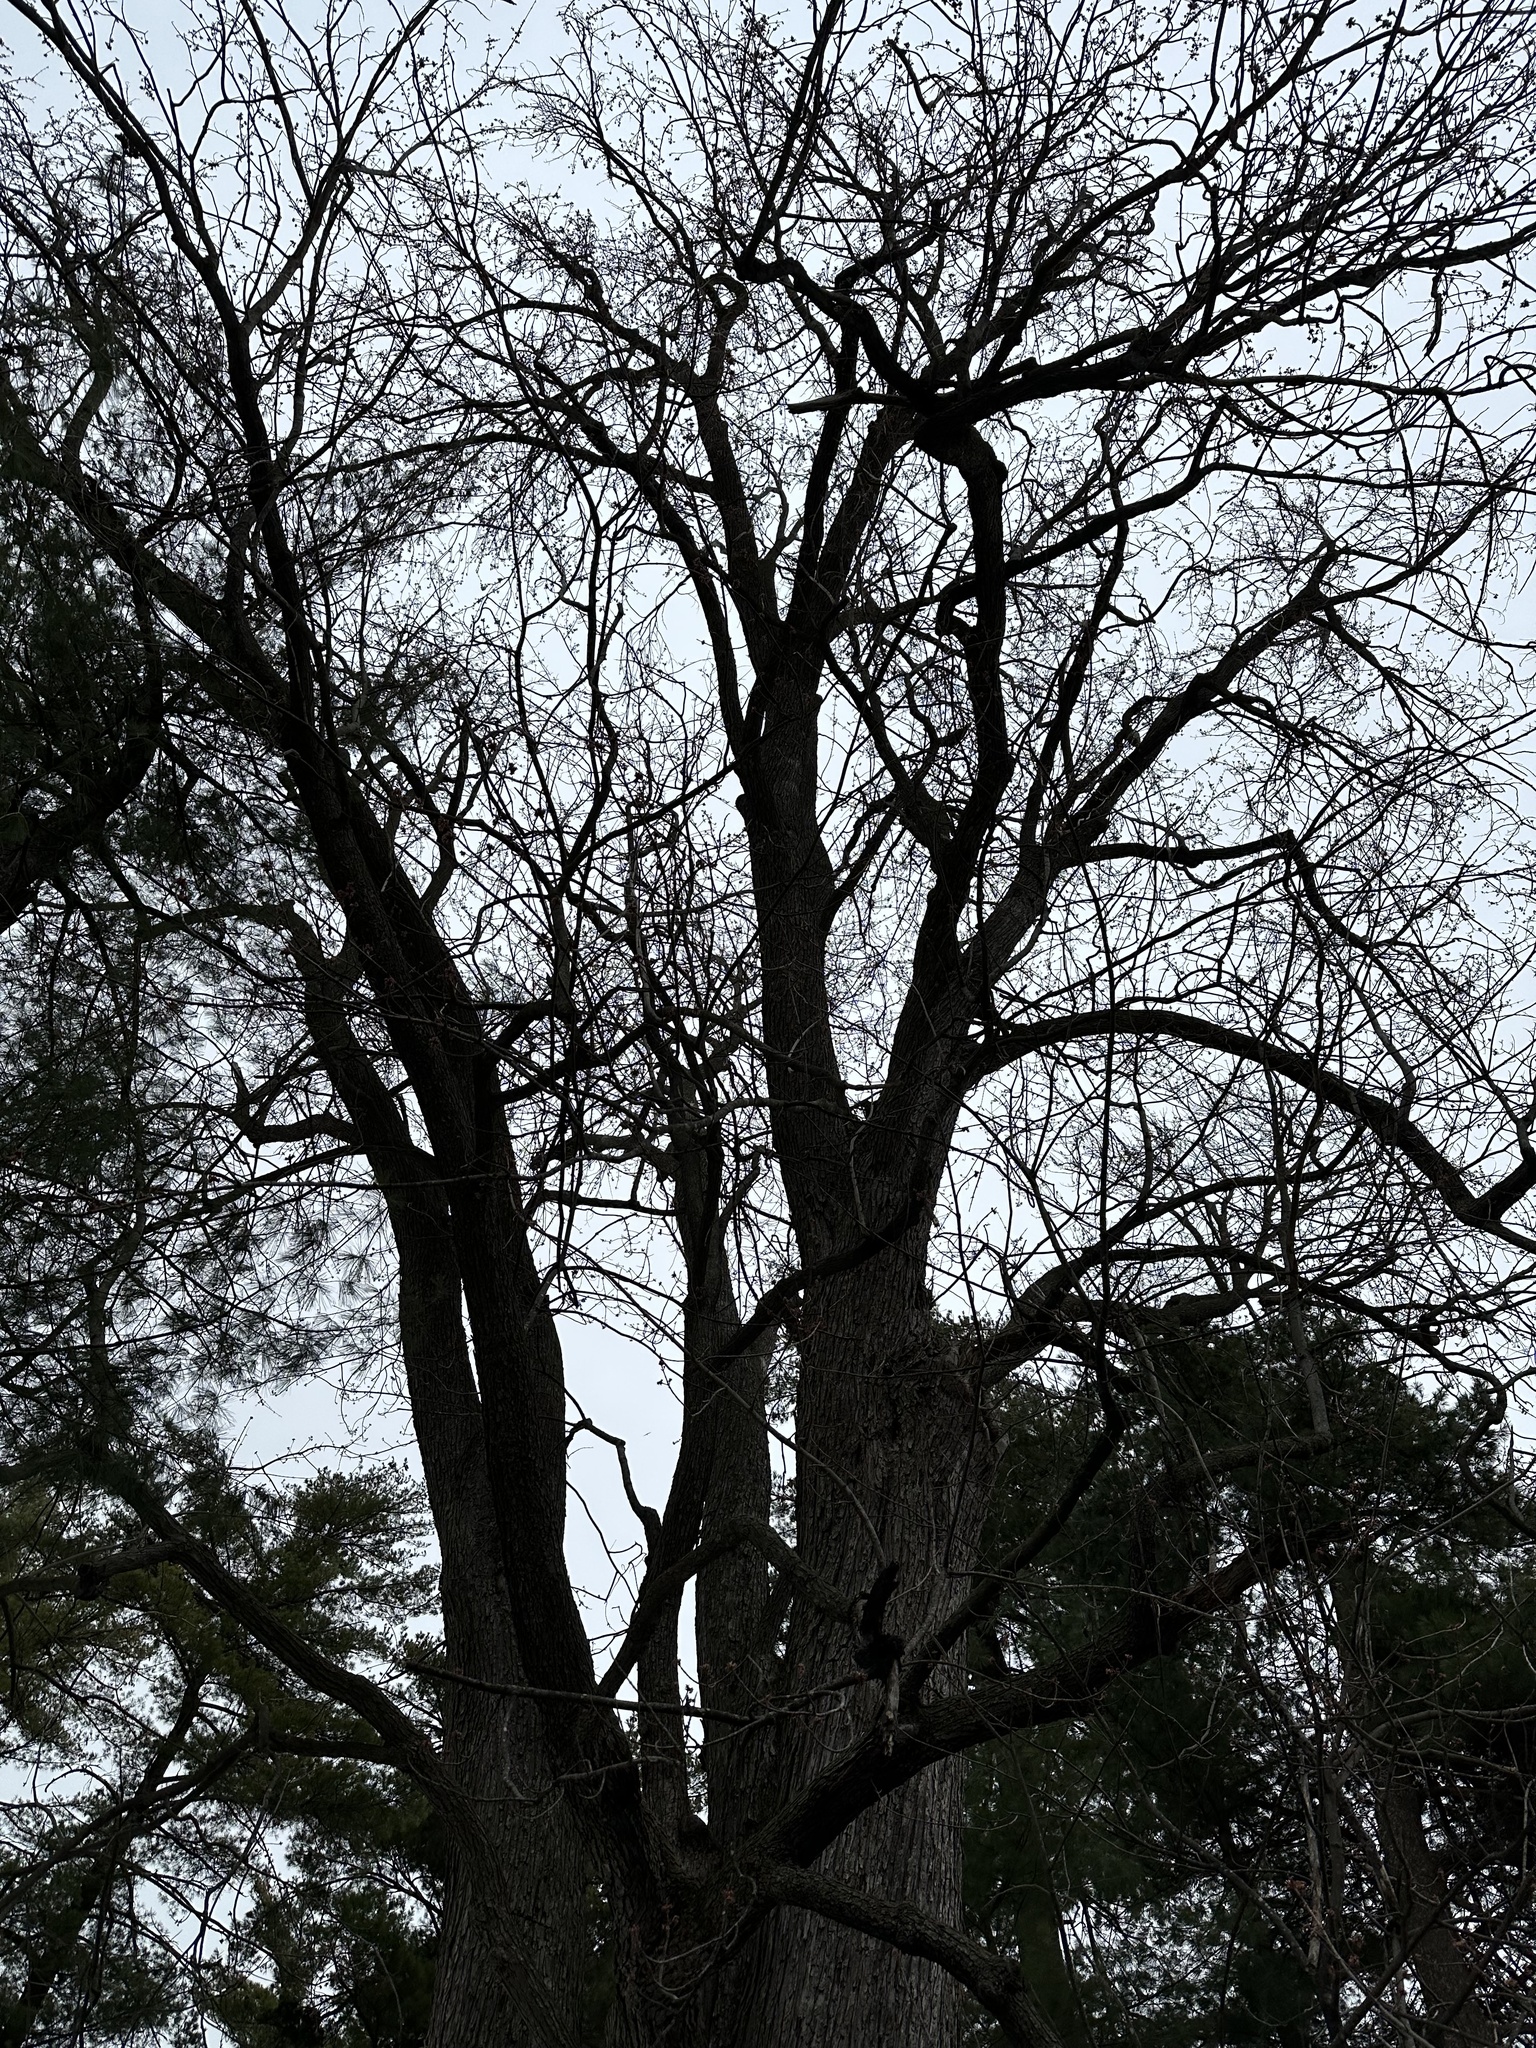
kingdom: Plantae
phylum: Tracheophyta
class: Magnoliopsida
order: Sapindales
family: Sapindaceae
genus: Acer
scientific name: Acer saccharinum
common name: Silver maple
